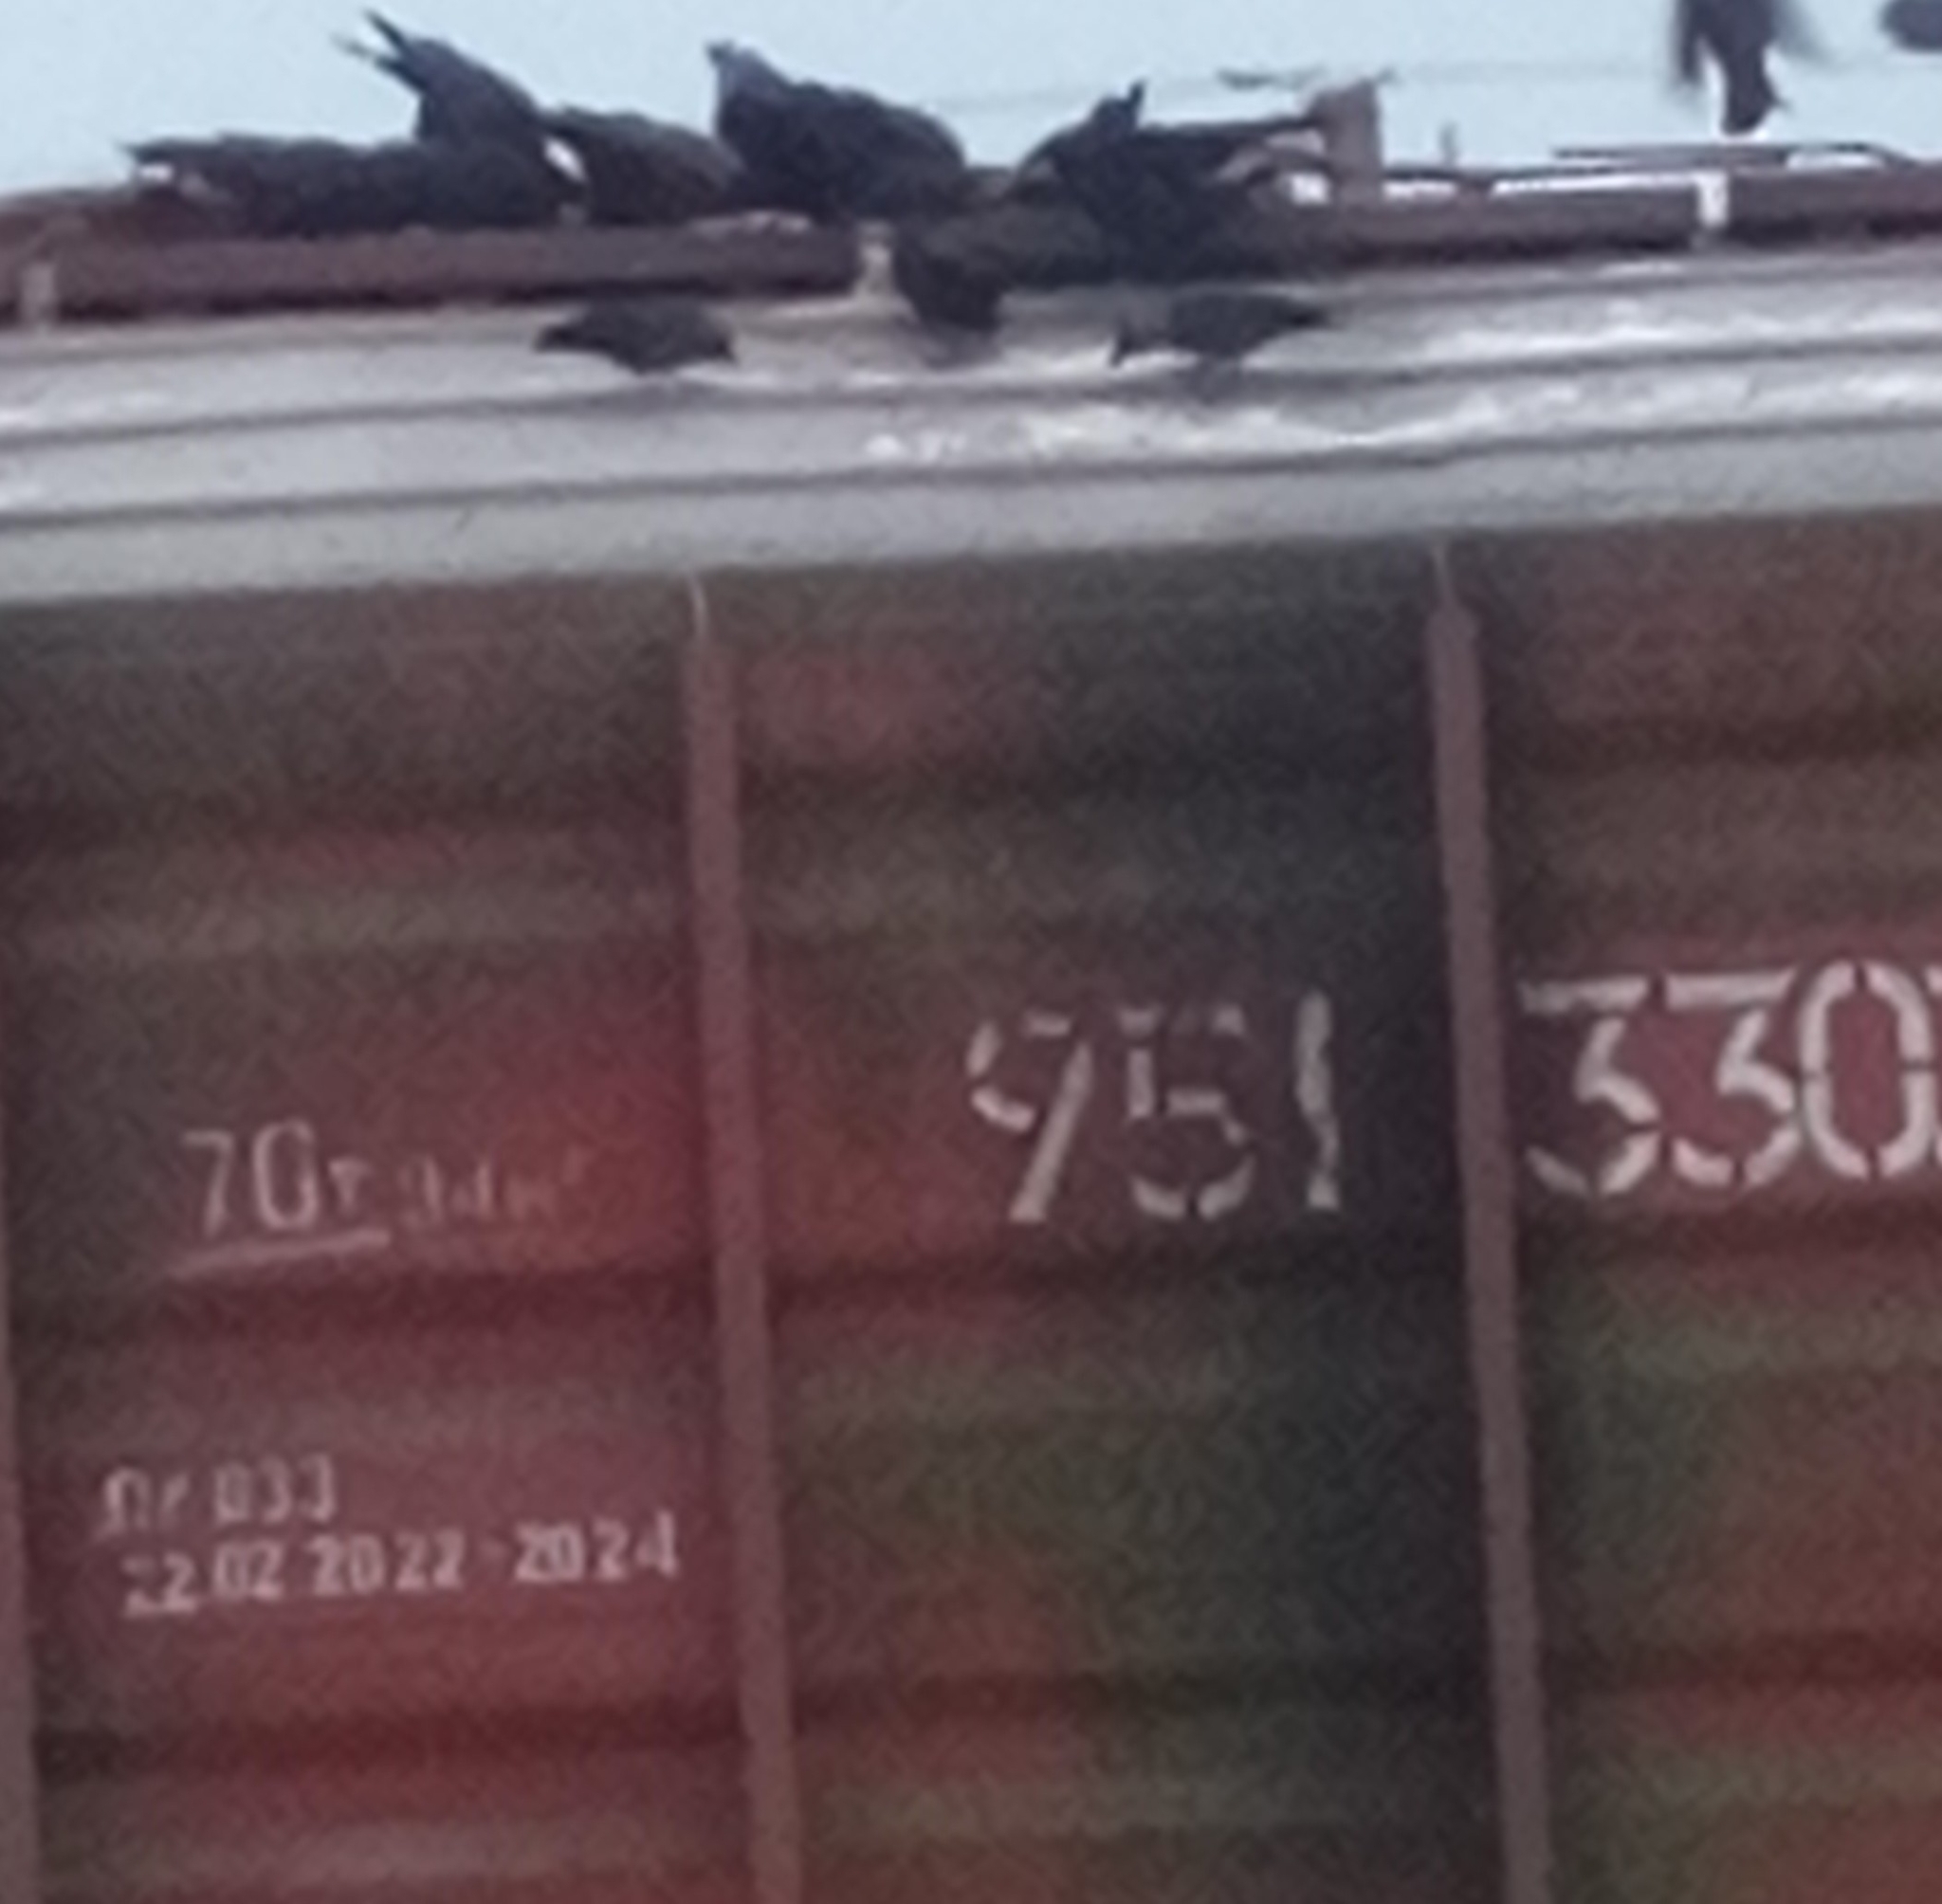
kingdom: Animalia
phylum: Chordata
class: Aves
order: Passeriformes
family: Corvidae
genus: Coloeus
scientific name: Coloeus monedula
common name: Western jackdaw
